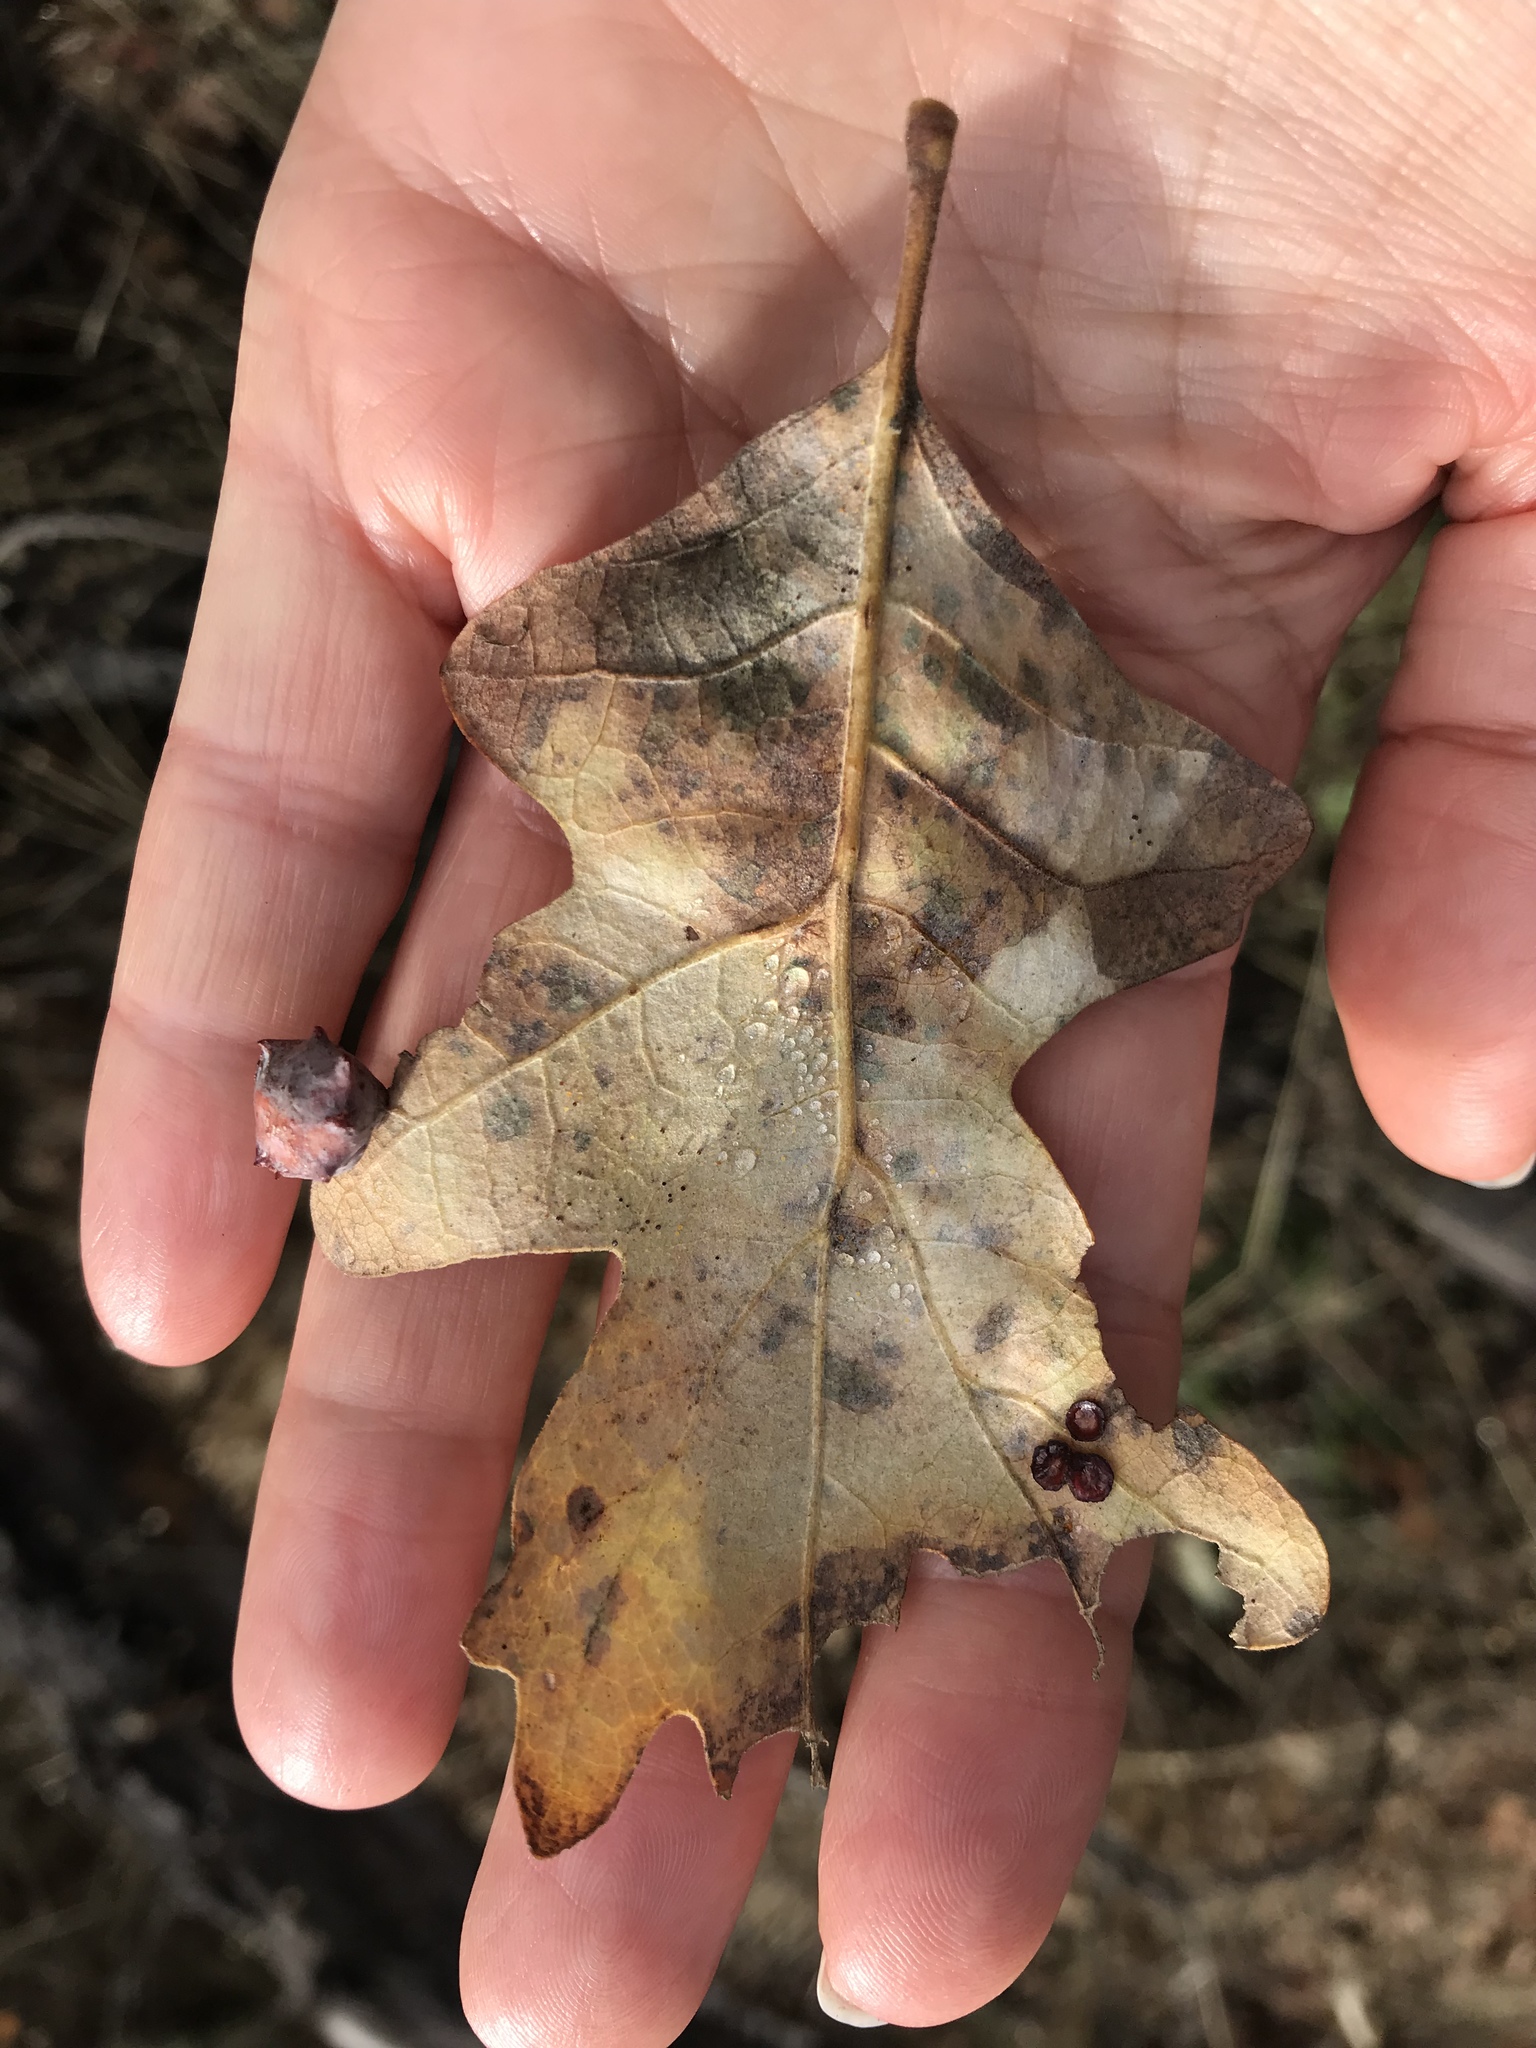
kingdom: Animalia
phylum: Arthropoda
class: Insecta
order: Hymenoptera
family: Cynipidae
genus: Andricus
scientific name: Andricus
